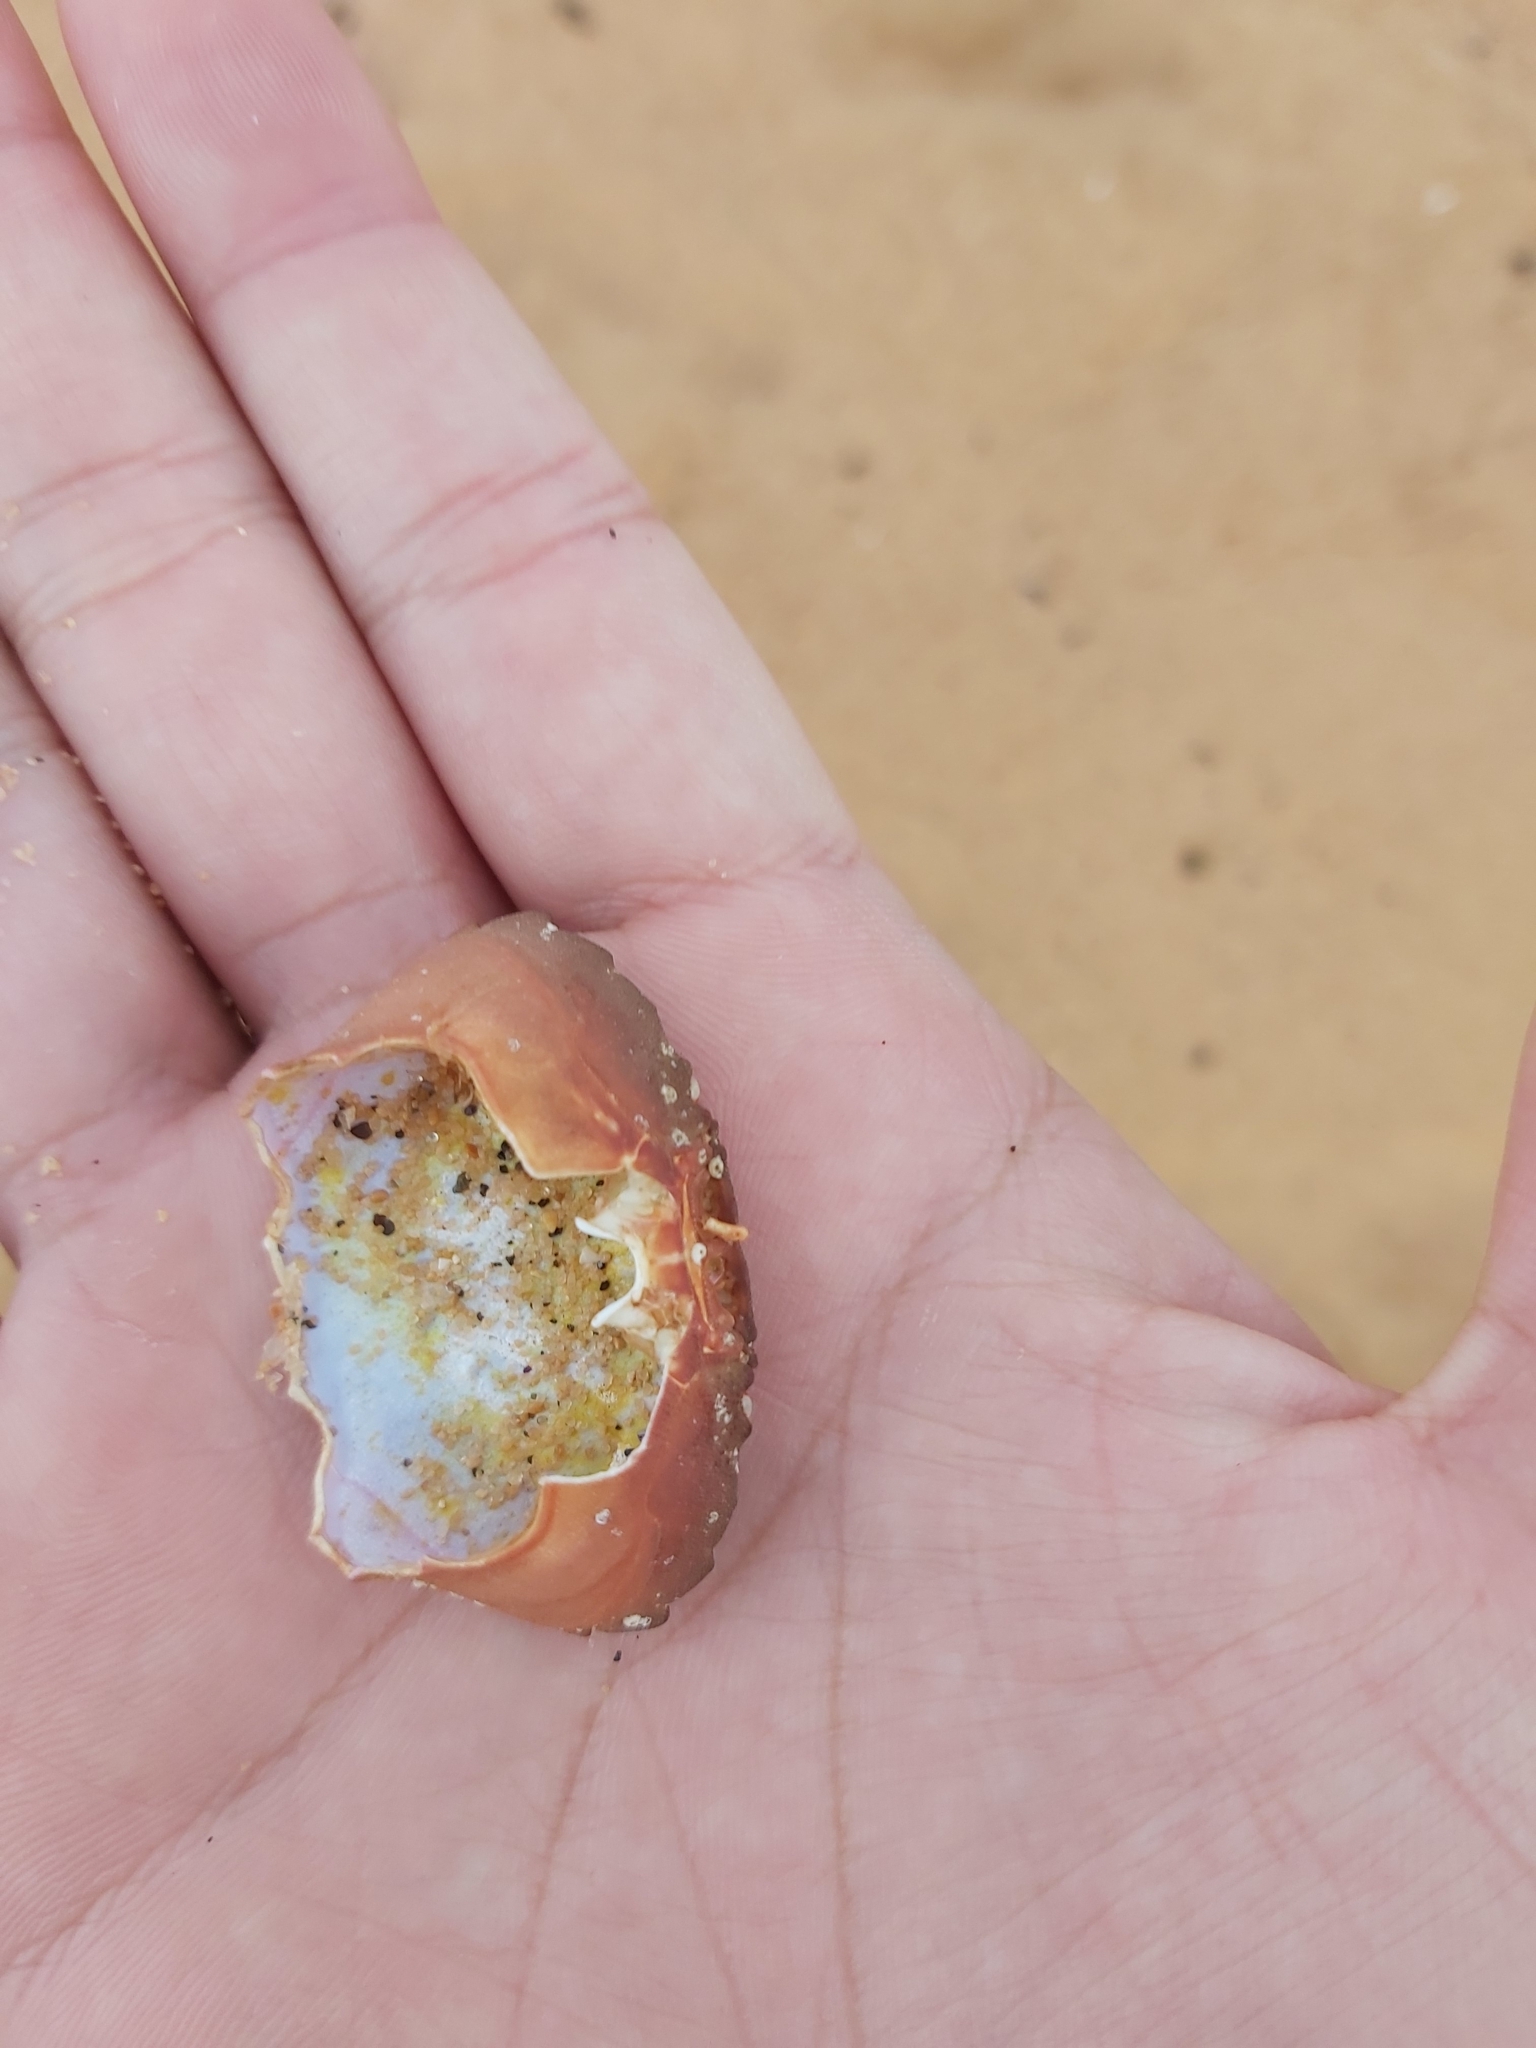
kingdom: Animalia
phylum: Arthropoda
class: Malacostraca
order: Decapoda
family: Oziidae
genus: Ozius
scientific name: Ozius truncatus
